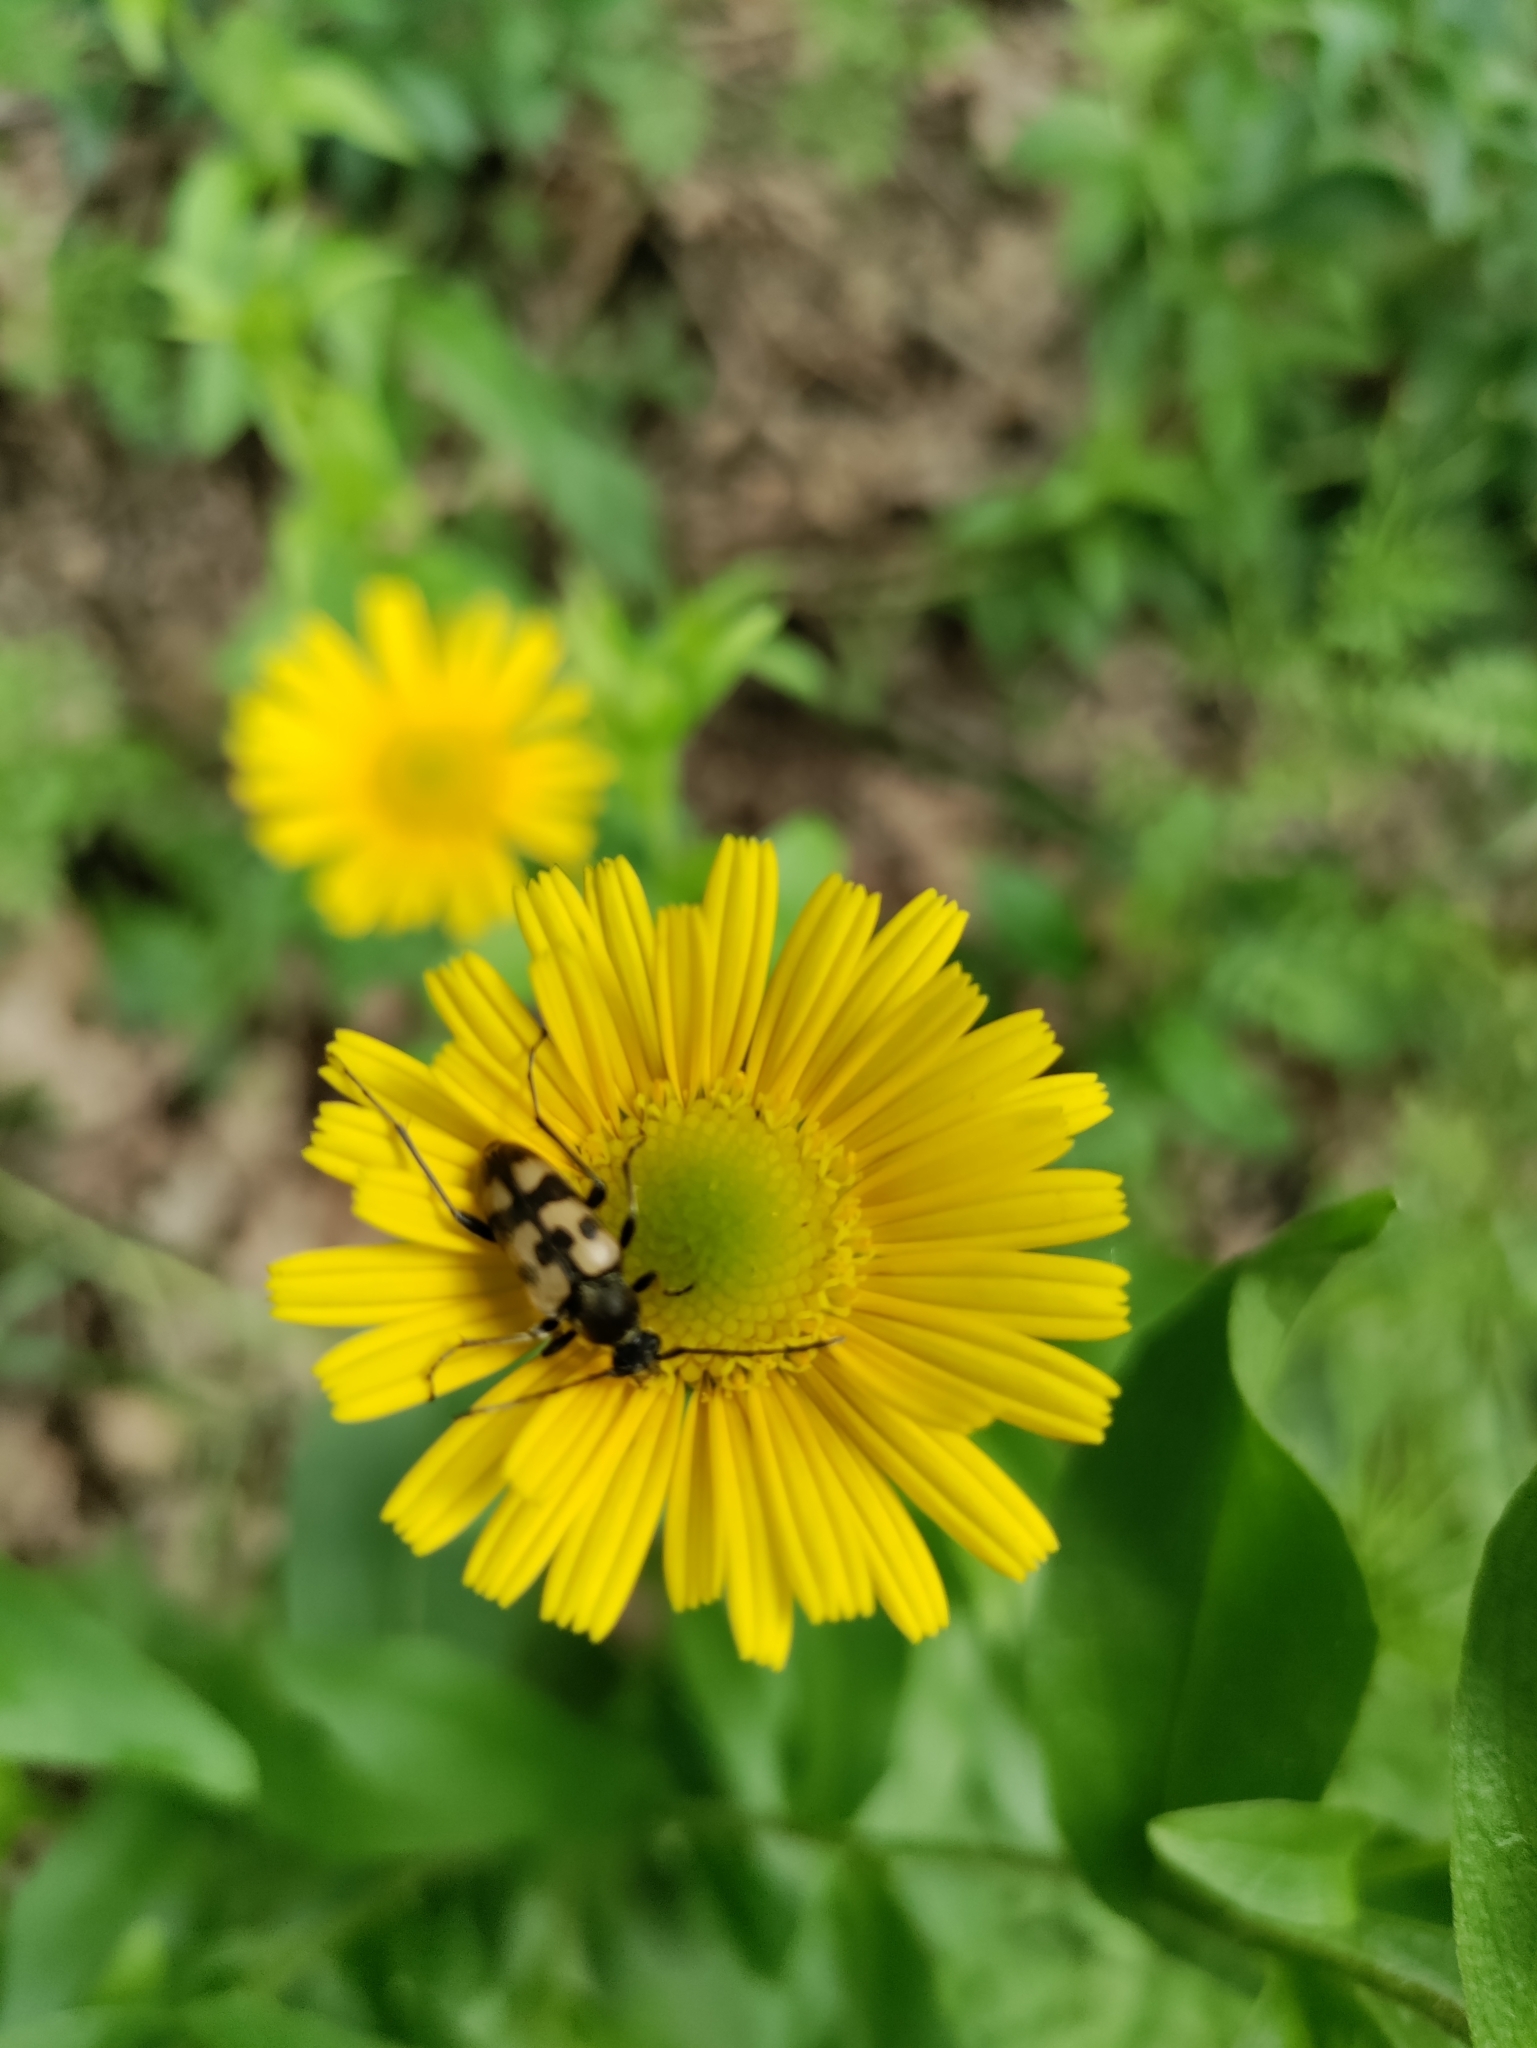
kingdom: Animalia
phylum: Arthropoda
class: Insecta
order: Coleoptera
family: Cerambycidae
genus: Pachytodes
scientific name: Pachytodes
